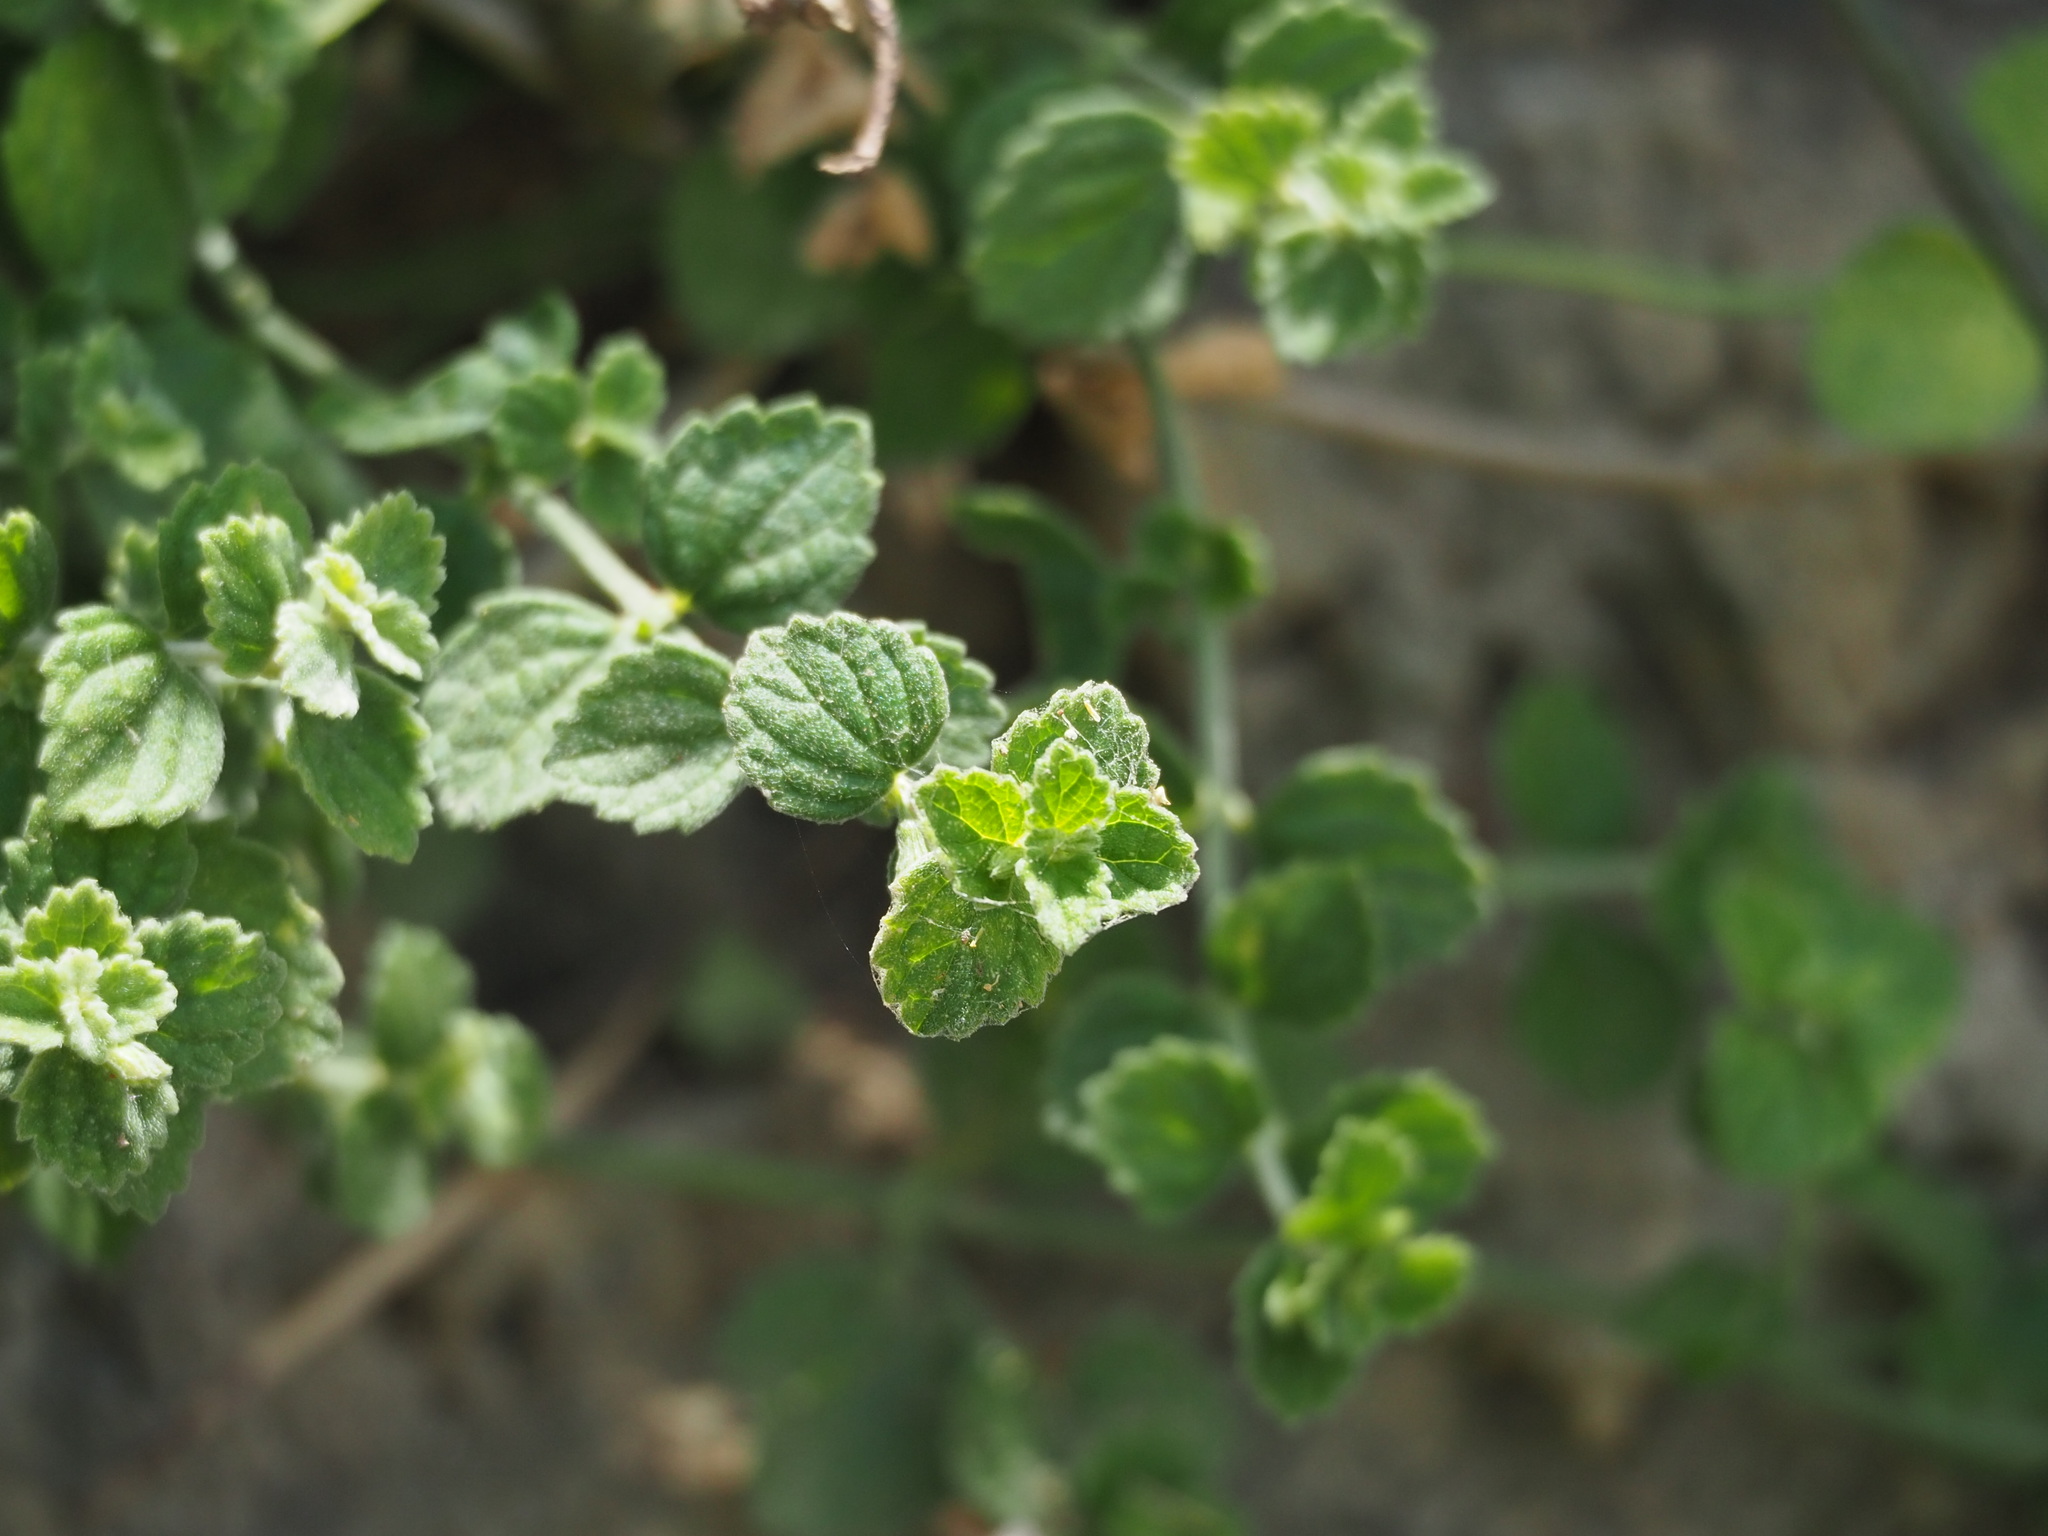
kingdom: Plantae
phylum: Tracheophyta
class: Magnoliopsida
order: Lamiales
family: Lamiaceae
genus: Leucas
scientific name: Leucas chinensis
